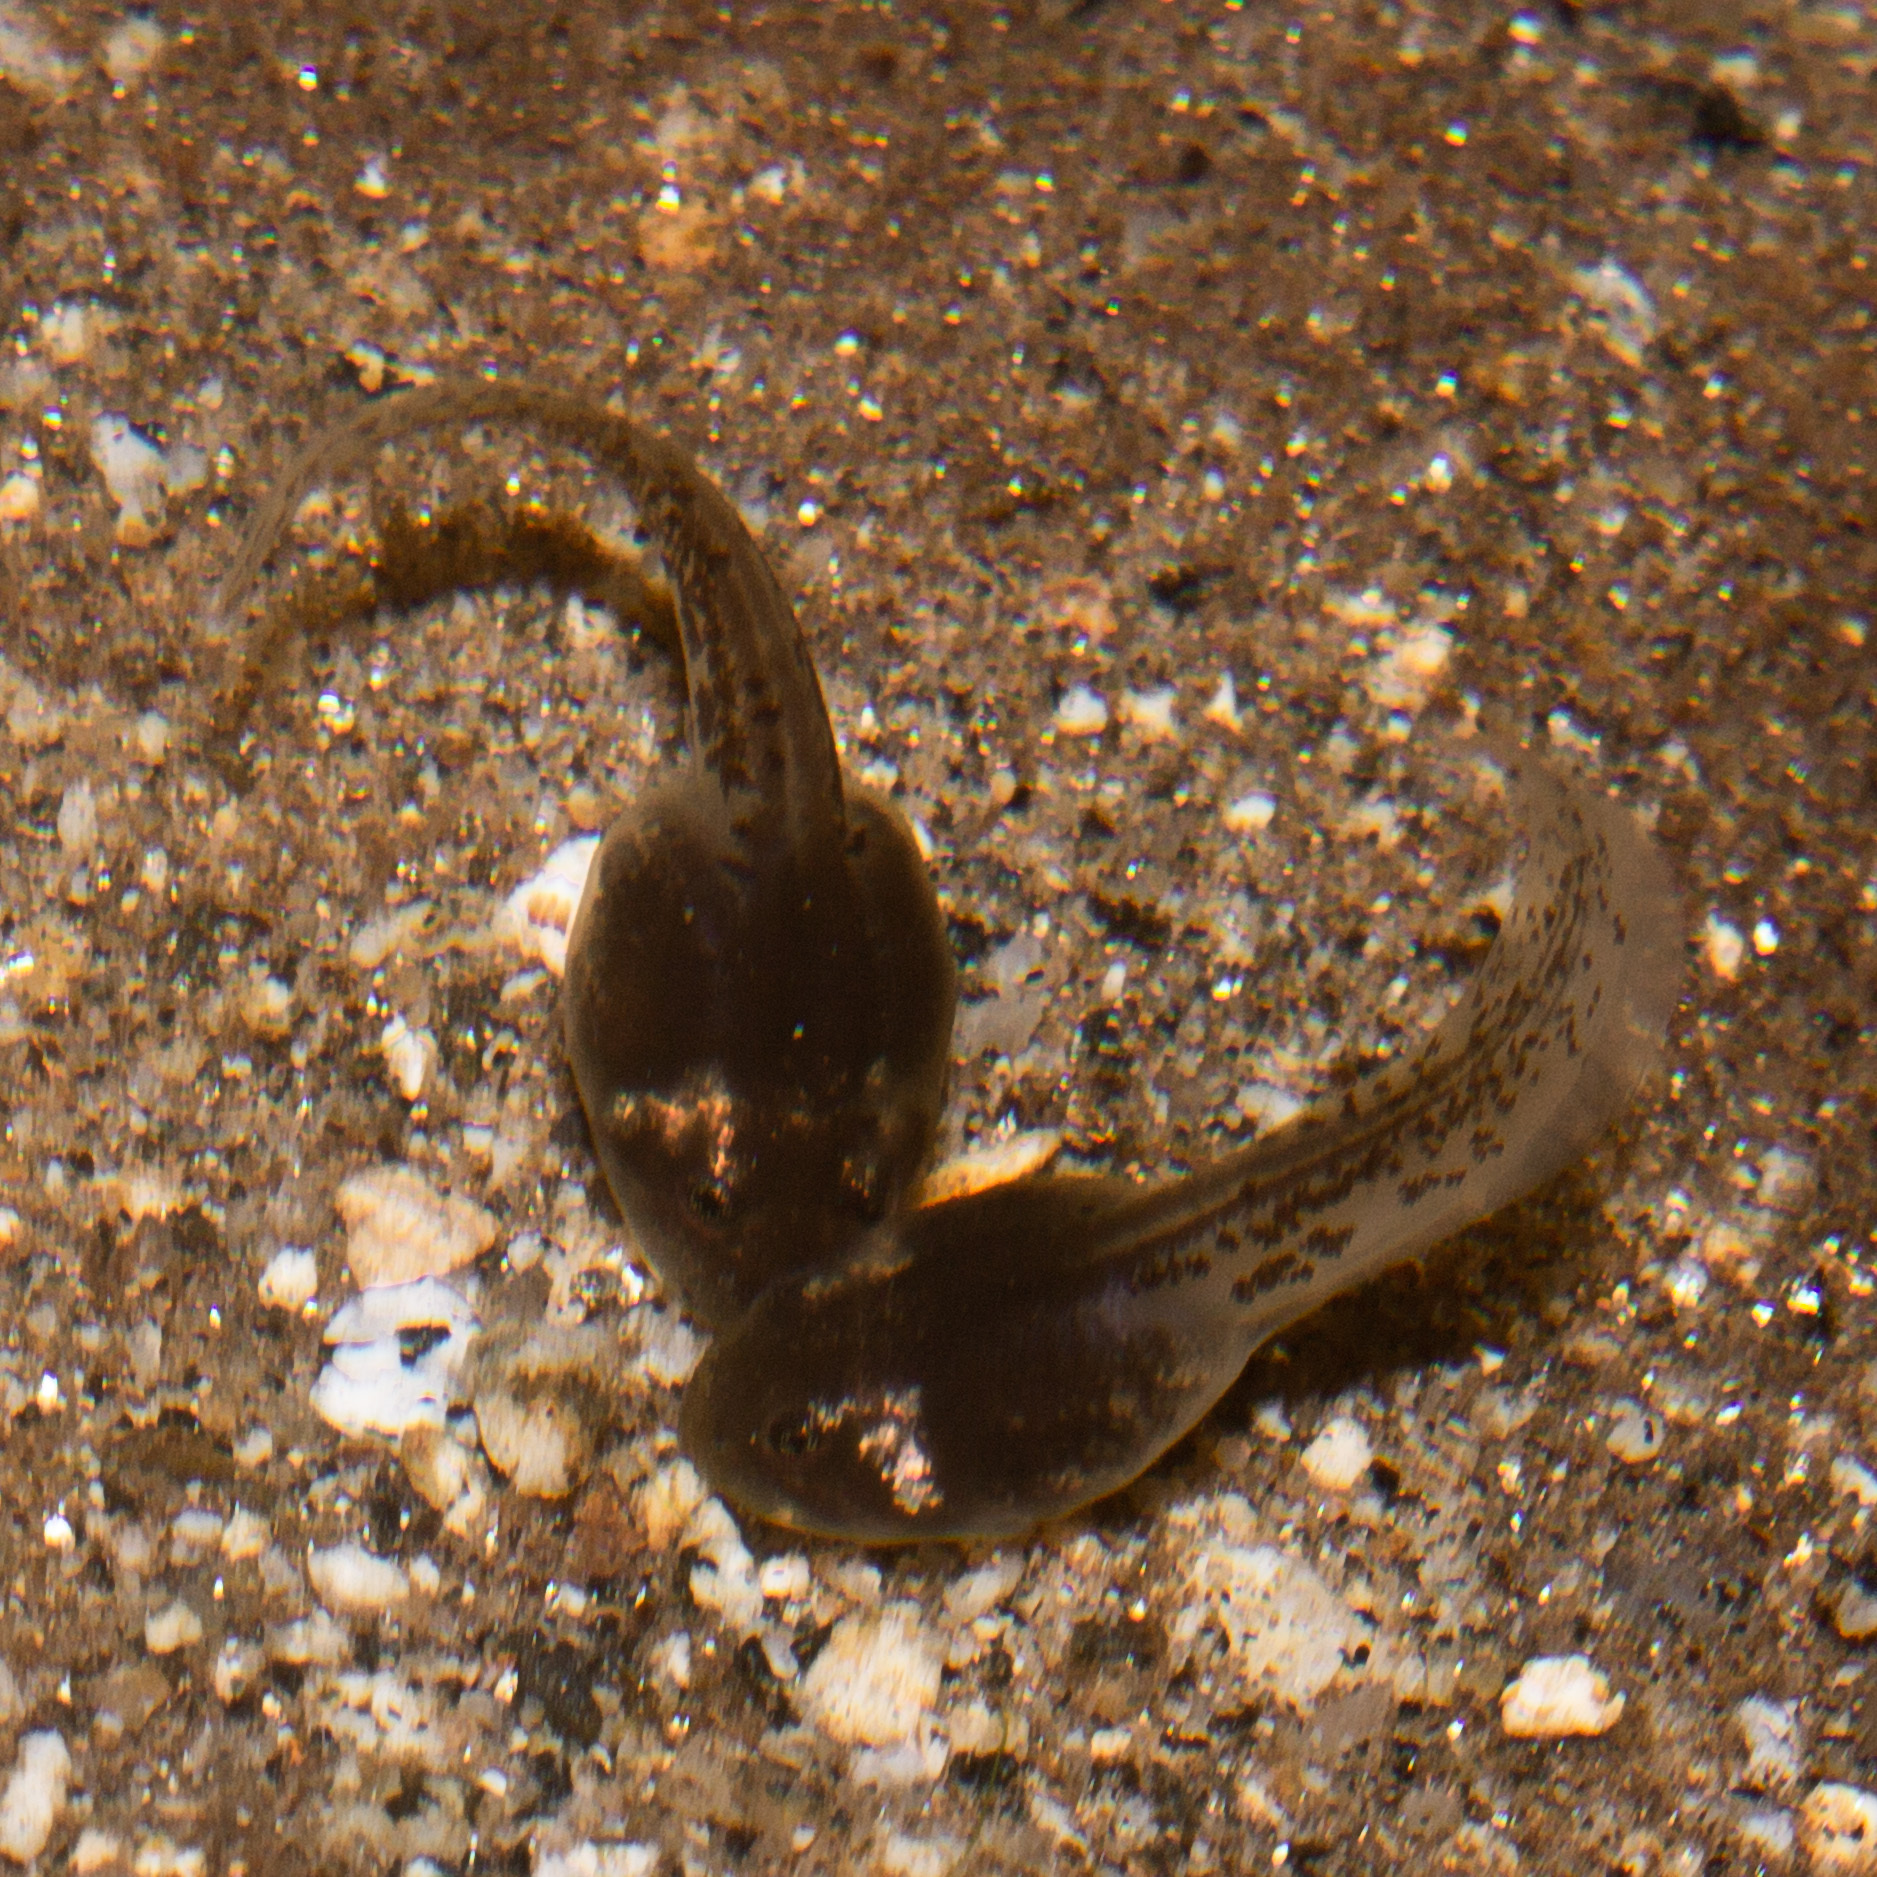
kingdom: Animalia
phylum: Chordata
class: Amphibia
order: Anura
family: Dendrobatidae
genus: Colostethus
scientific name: Colostethus ruthveni
